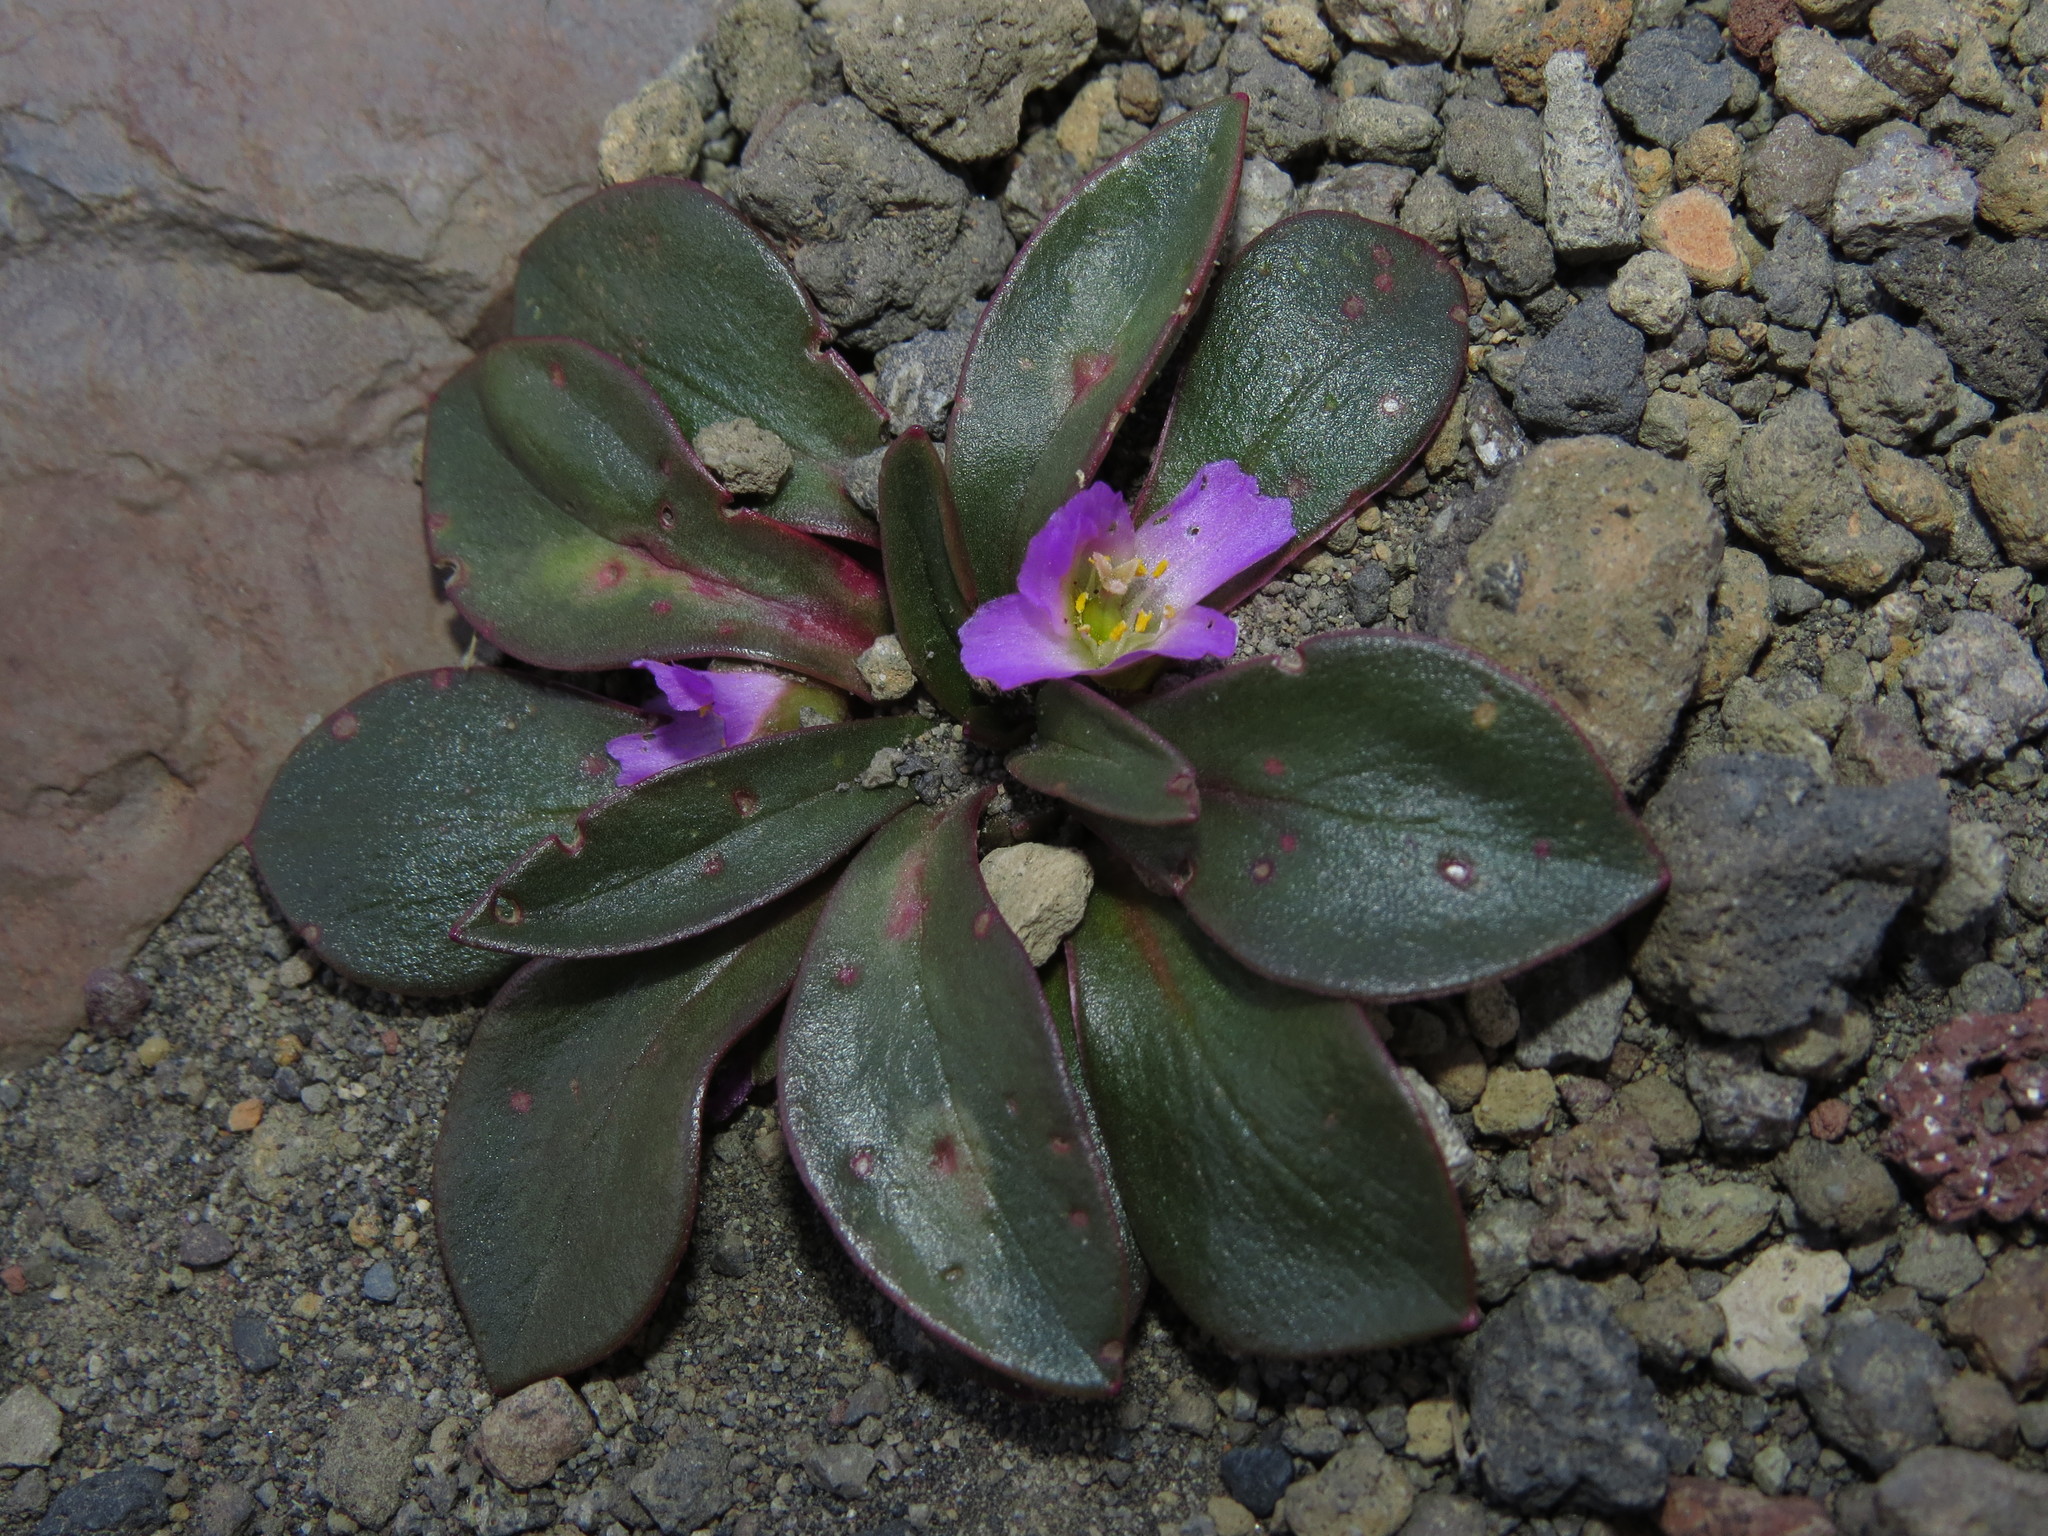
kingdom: Plantae
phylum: Tracheophyta
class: Magnoliopsida
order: Caryophyllales
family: Montiaceae
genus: Calandrinia
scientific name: Calandrinia colchaguensis
